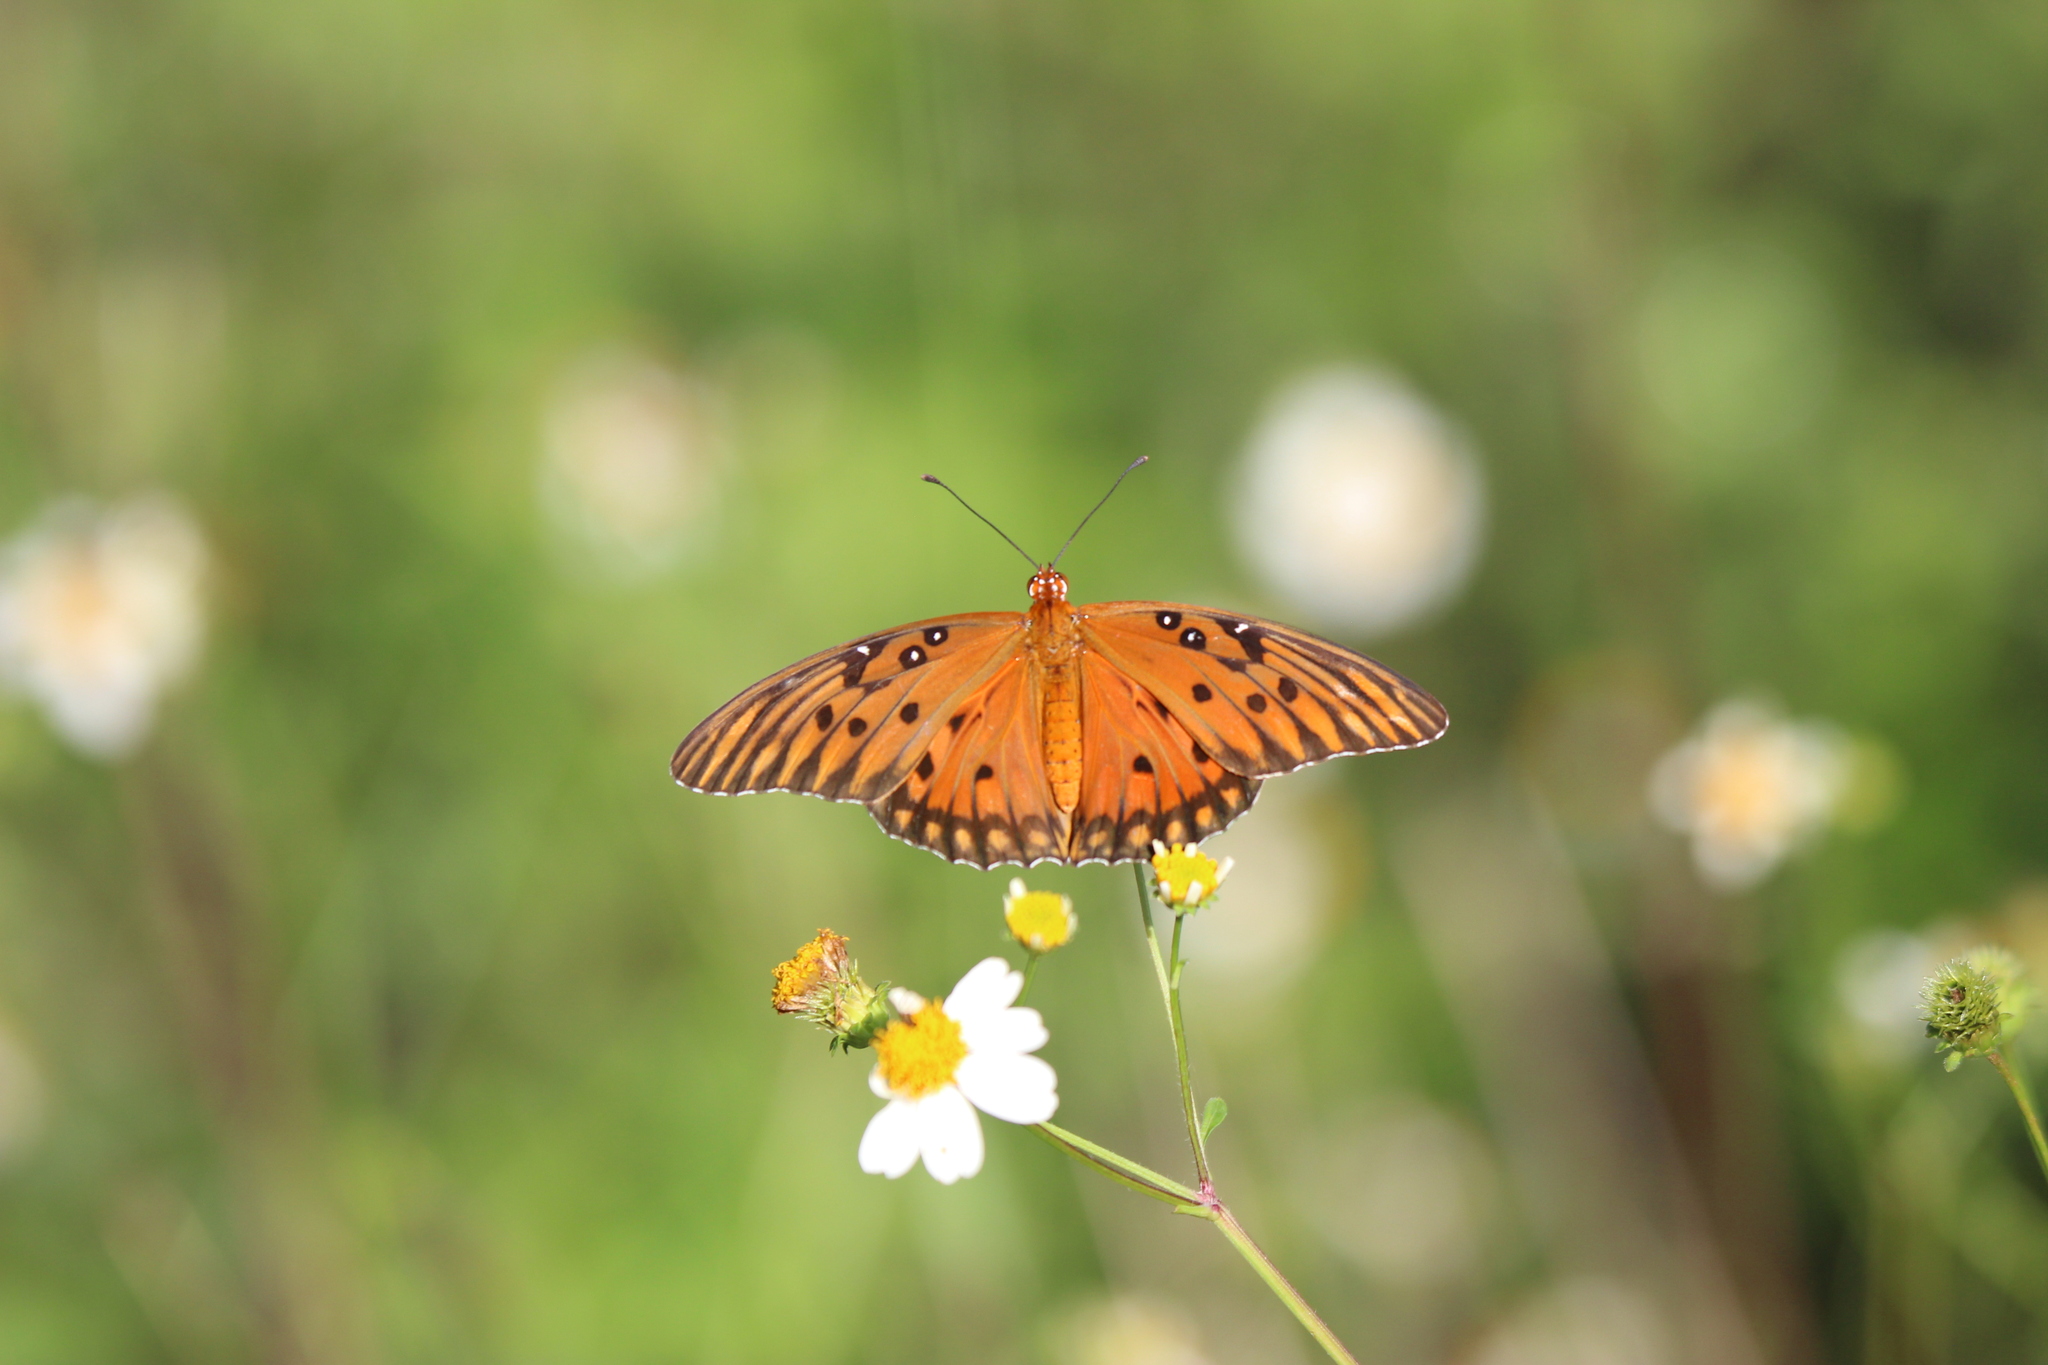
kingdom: Animalia
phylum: Arthropoda
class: Insecta
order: Lepidoptera
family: Nymphalidae
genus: Dione
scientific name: Dione vanillae
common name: Gulf fritillary
